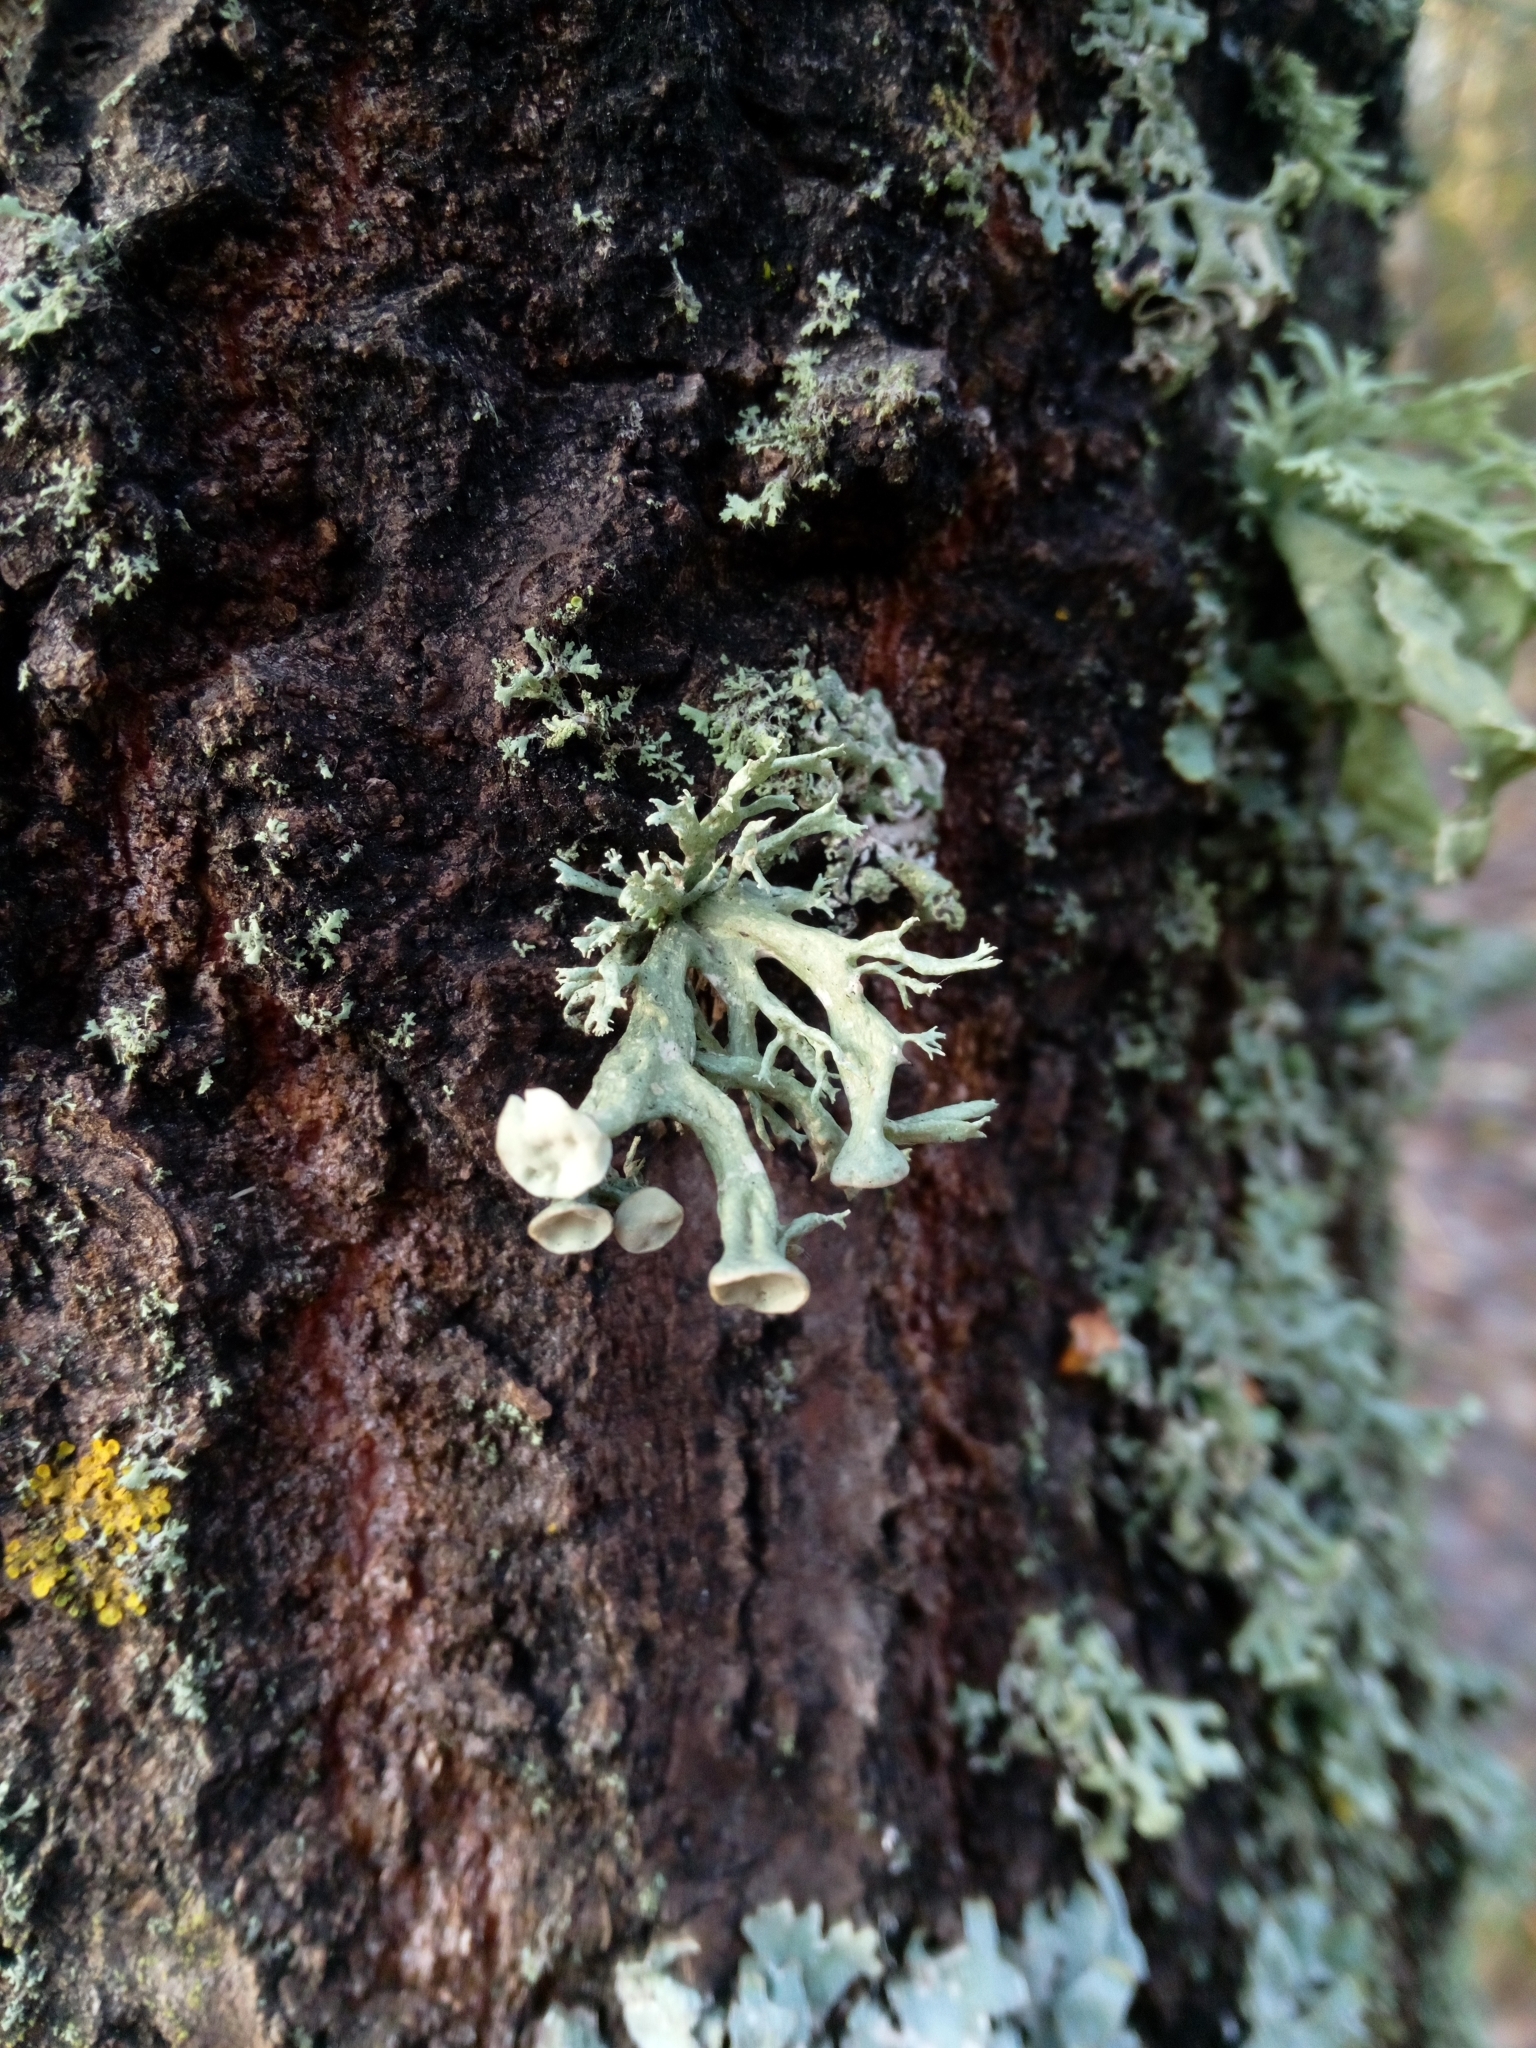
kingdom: Fungi
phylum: Ascomycota
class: Lecanoromycetes
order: Lecanorales
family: Ramalinaceae
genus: Ramalina
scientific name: Ramalina fastigiata
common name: Dotted ribbon lichen
